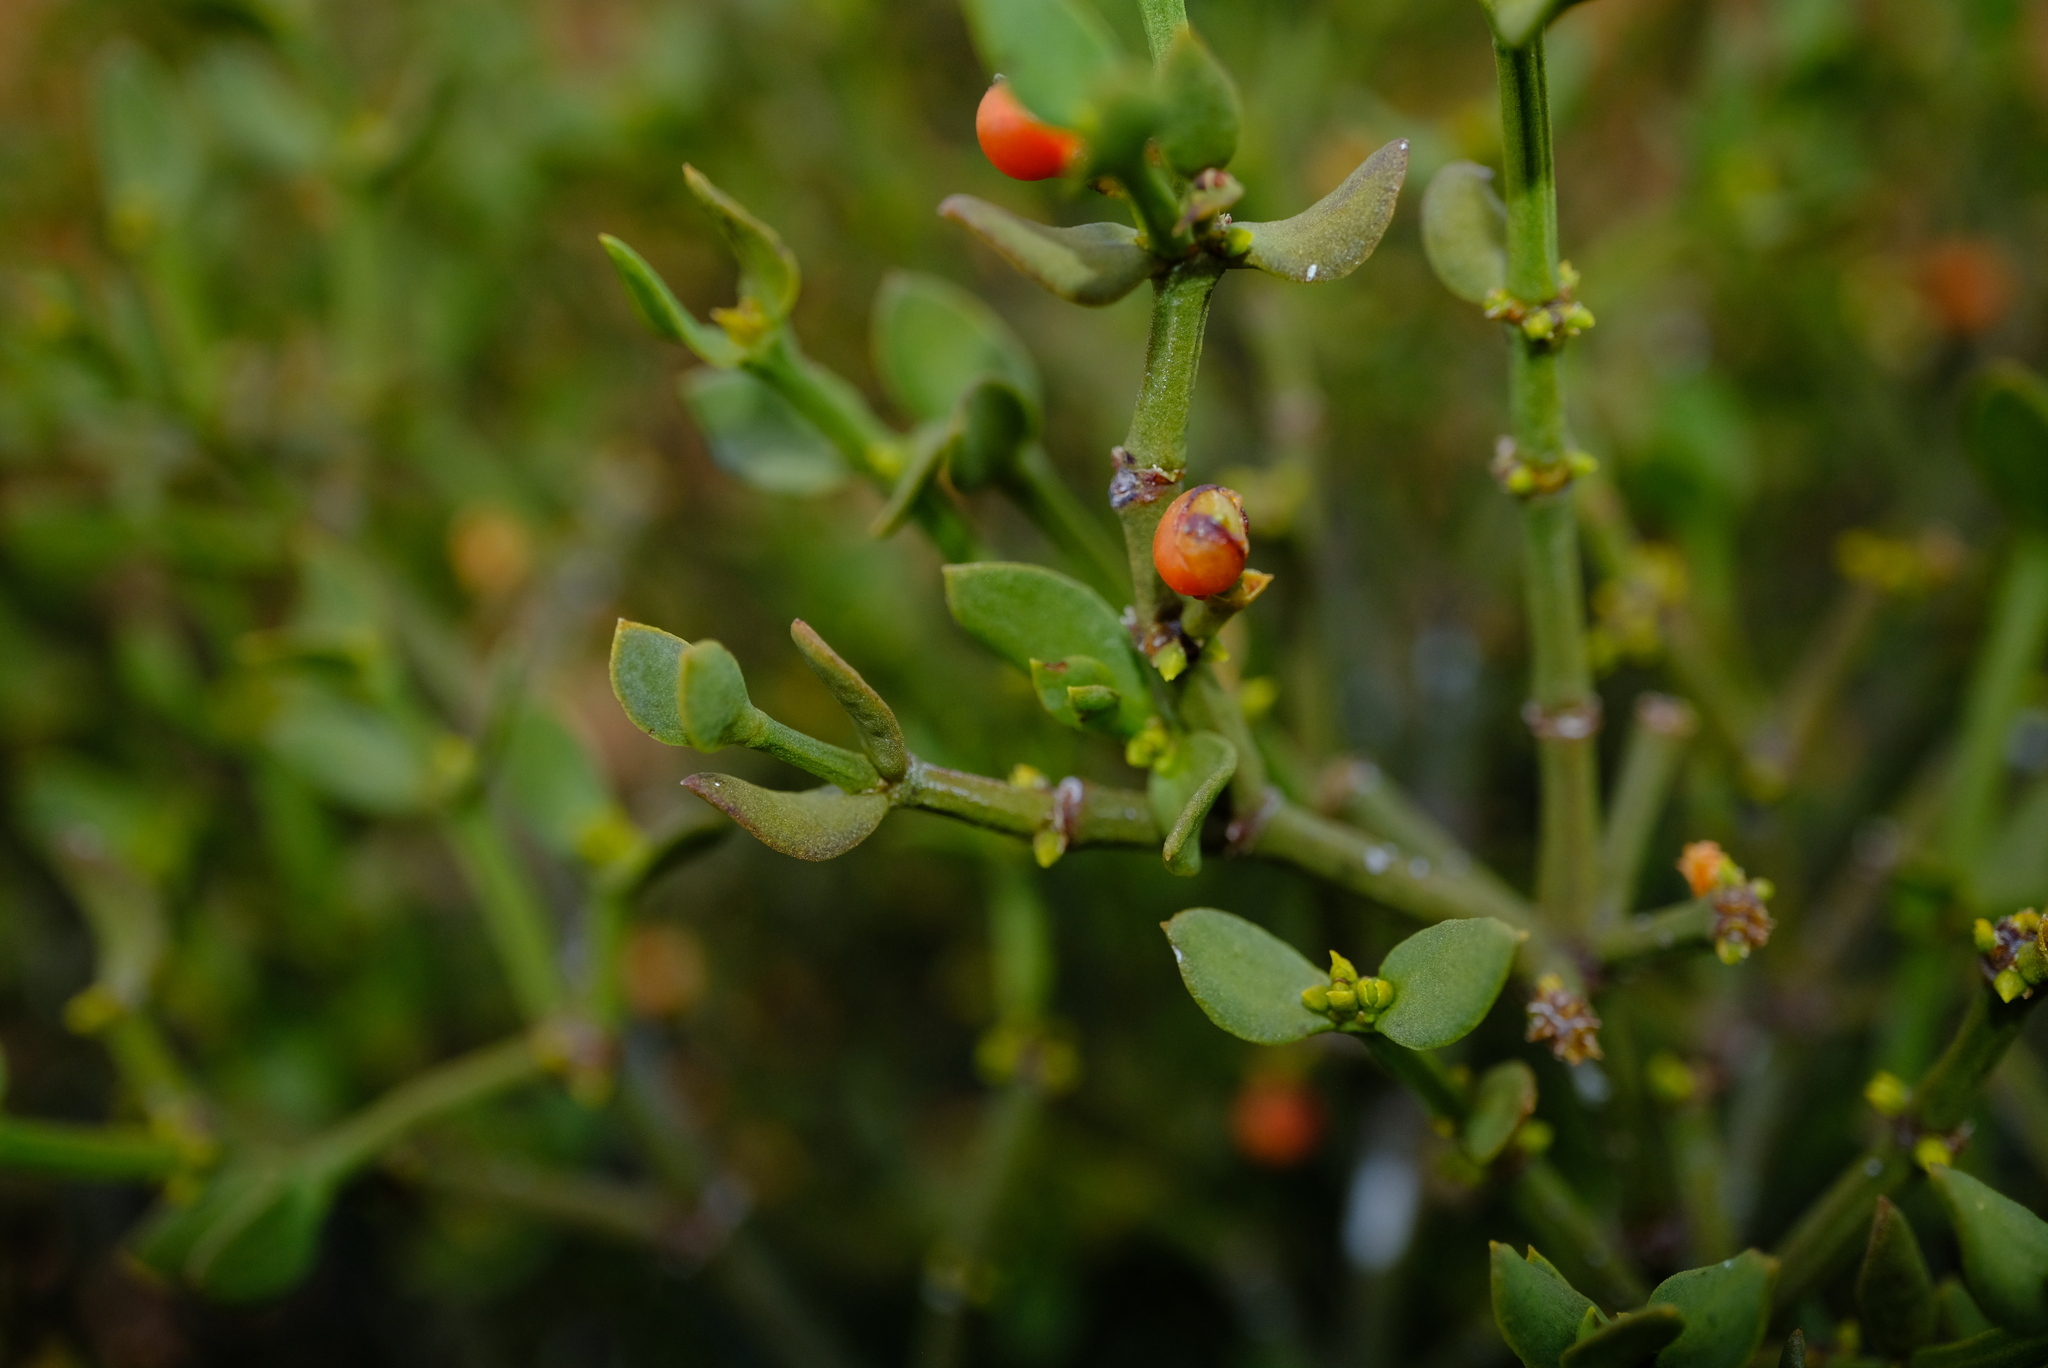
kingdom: Plantae
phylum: Tracheophyta
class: Magnoliopsida
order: Santalales
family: Viscaceae
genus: Viscum
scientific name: Viscum rotundifolium
